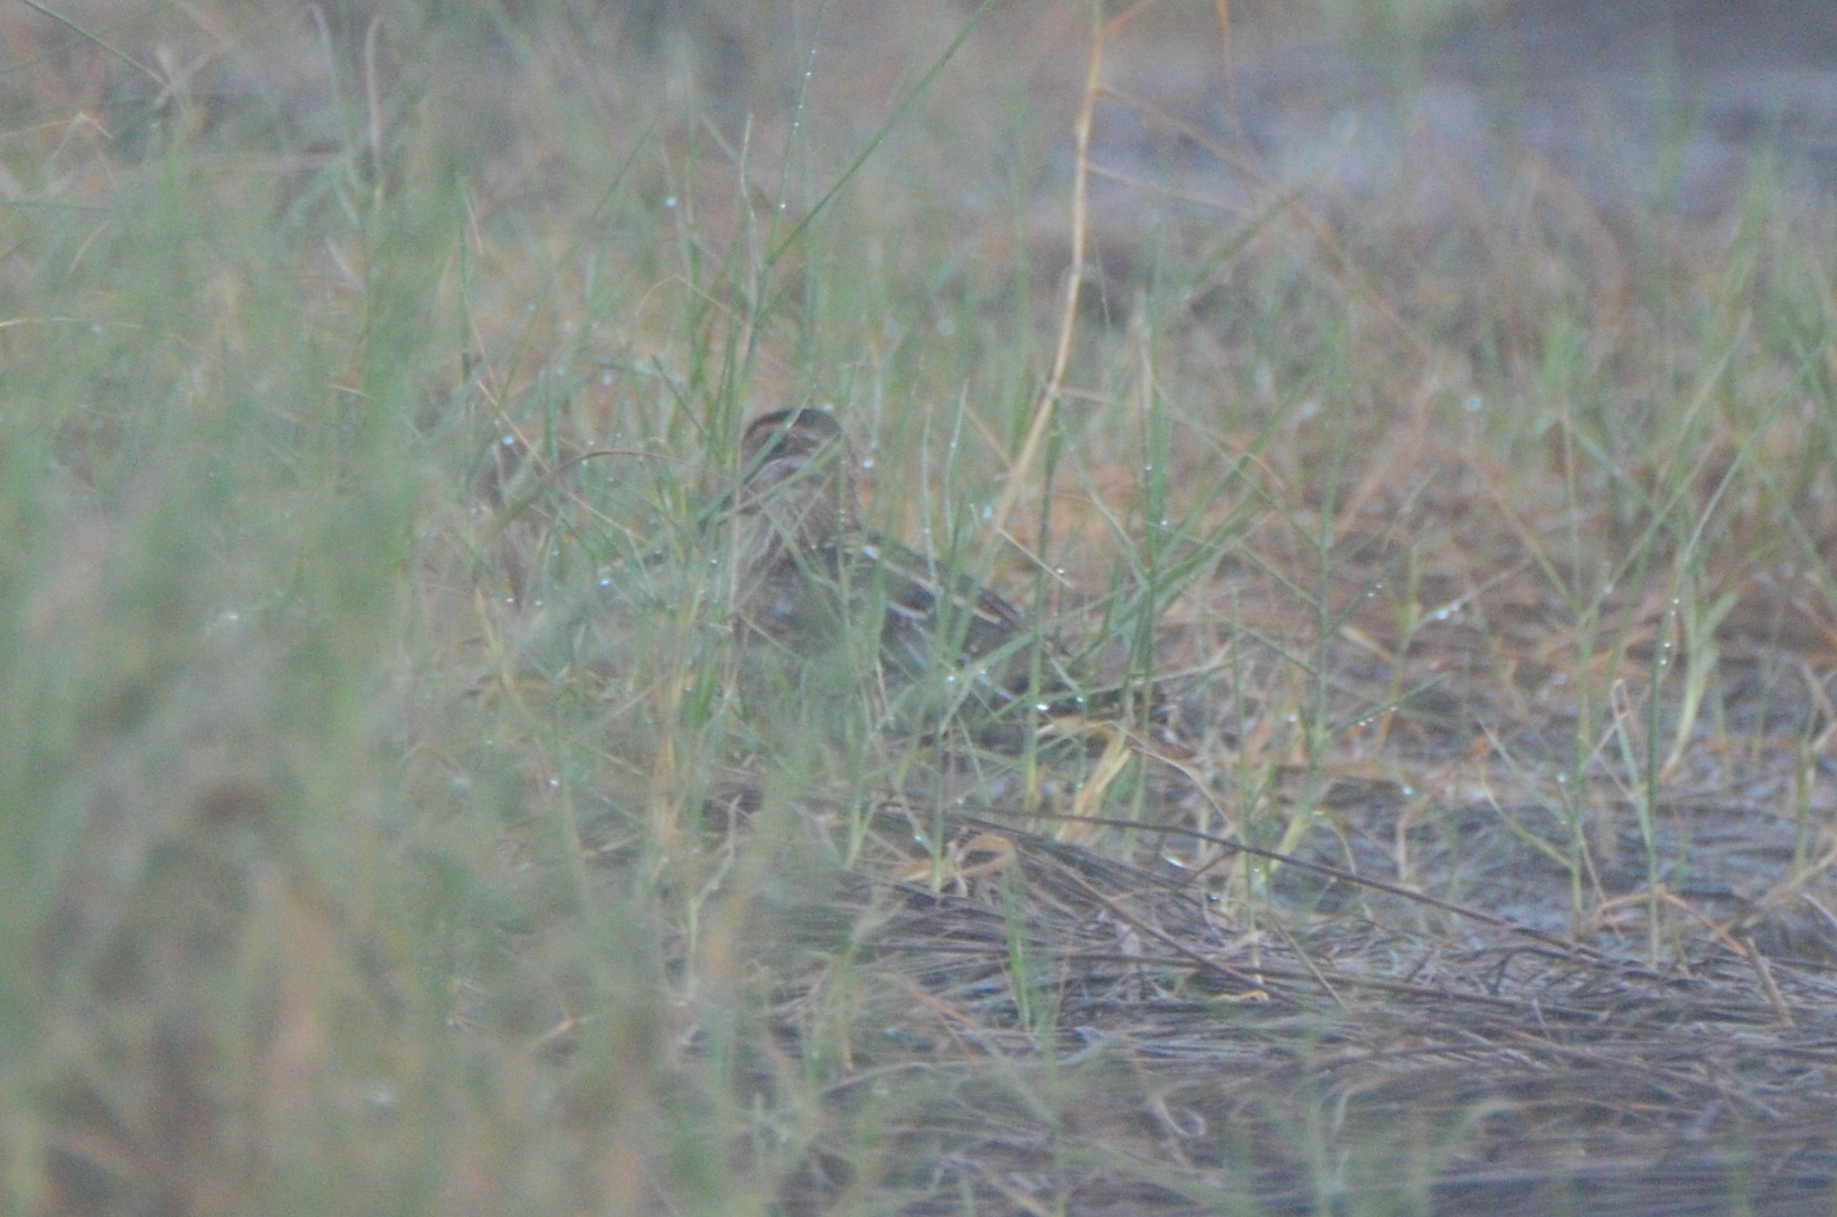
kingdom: Animalia
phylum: Chordata
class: Aves
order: Charadriiformes
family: Scolopacidae
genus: Gallinago
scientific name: Gallinago delicata
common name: Wilson's snipe
